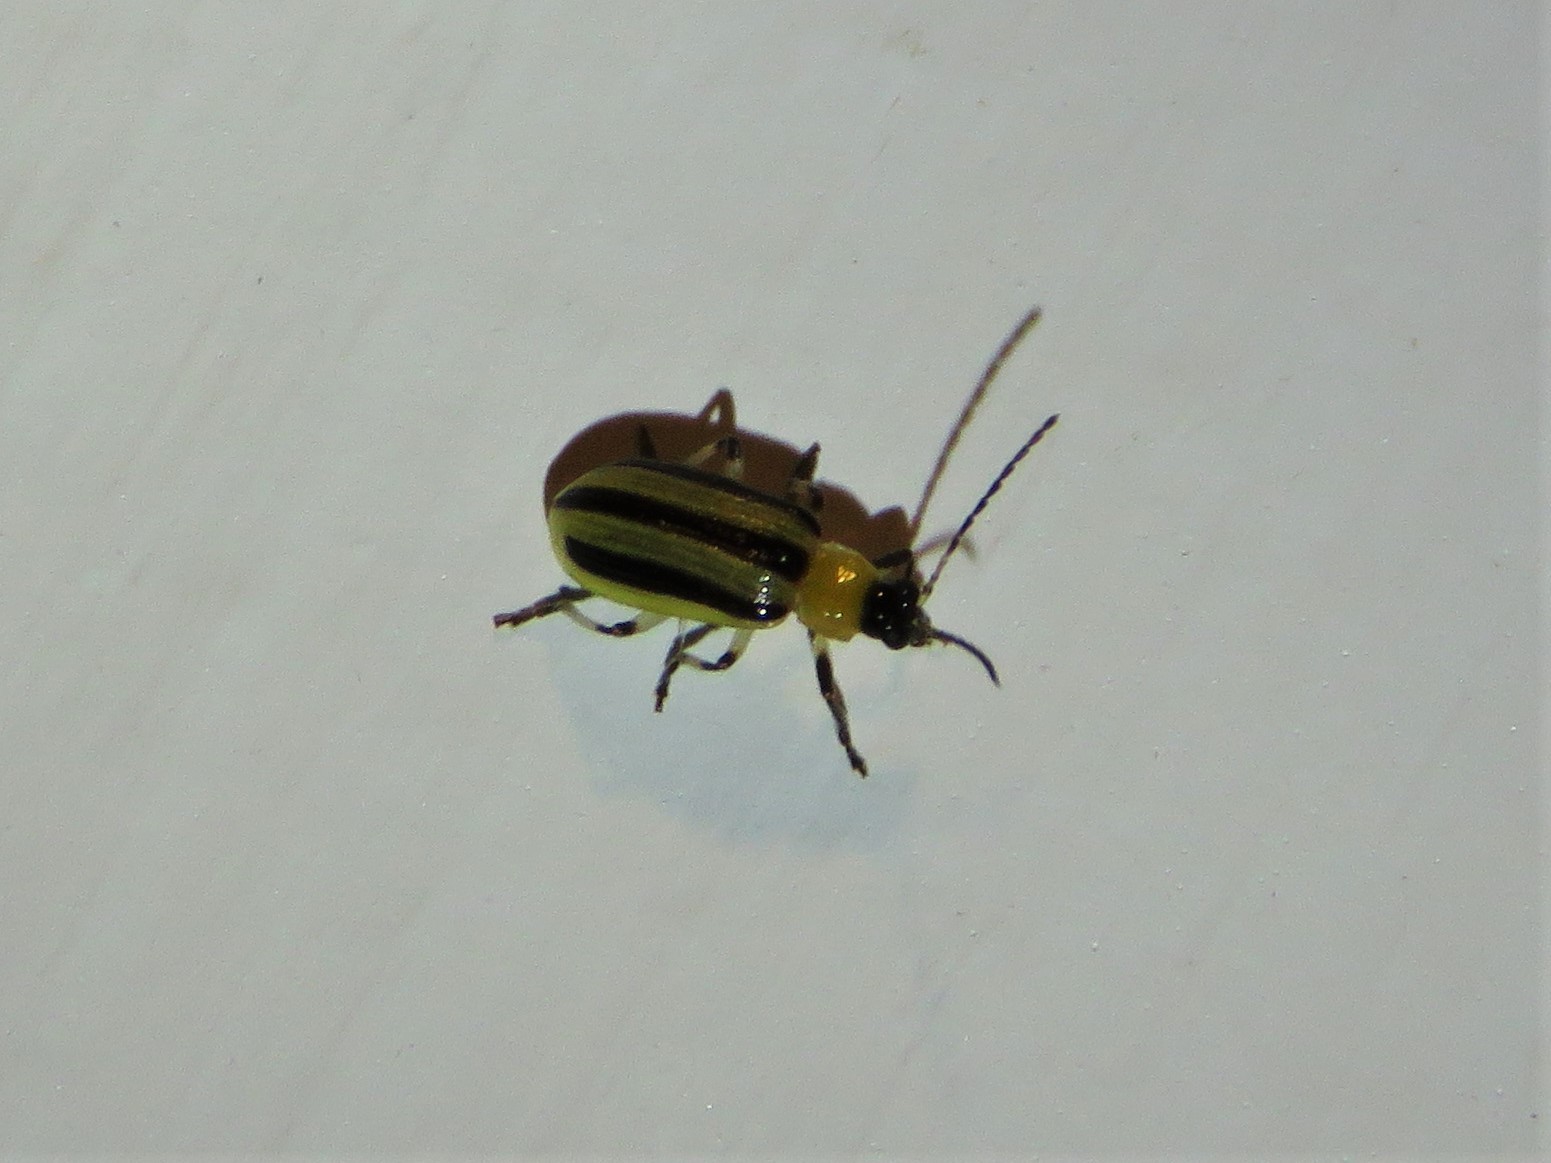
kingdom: Animalia
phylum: Arthropoda
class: Insecta
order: Coleoptera
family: Chrysomelidae
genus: Acalymma
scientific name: Acalymma vittatum
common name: Striped cucumber beetle
